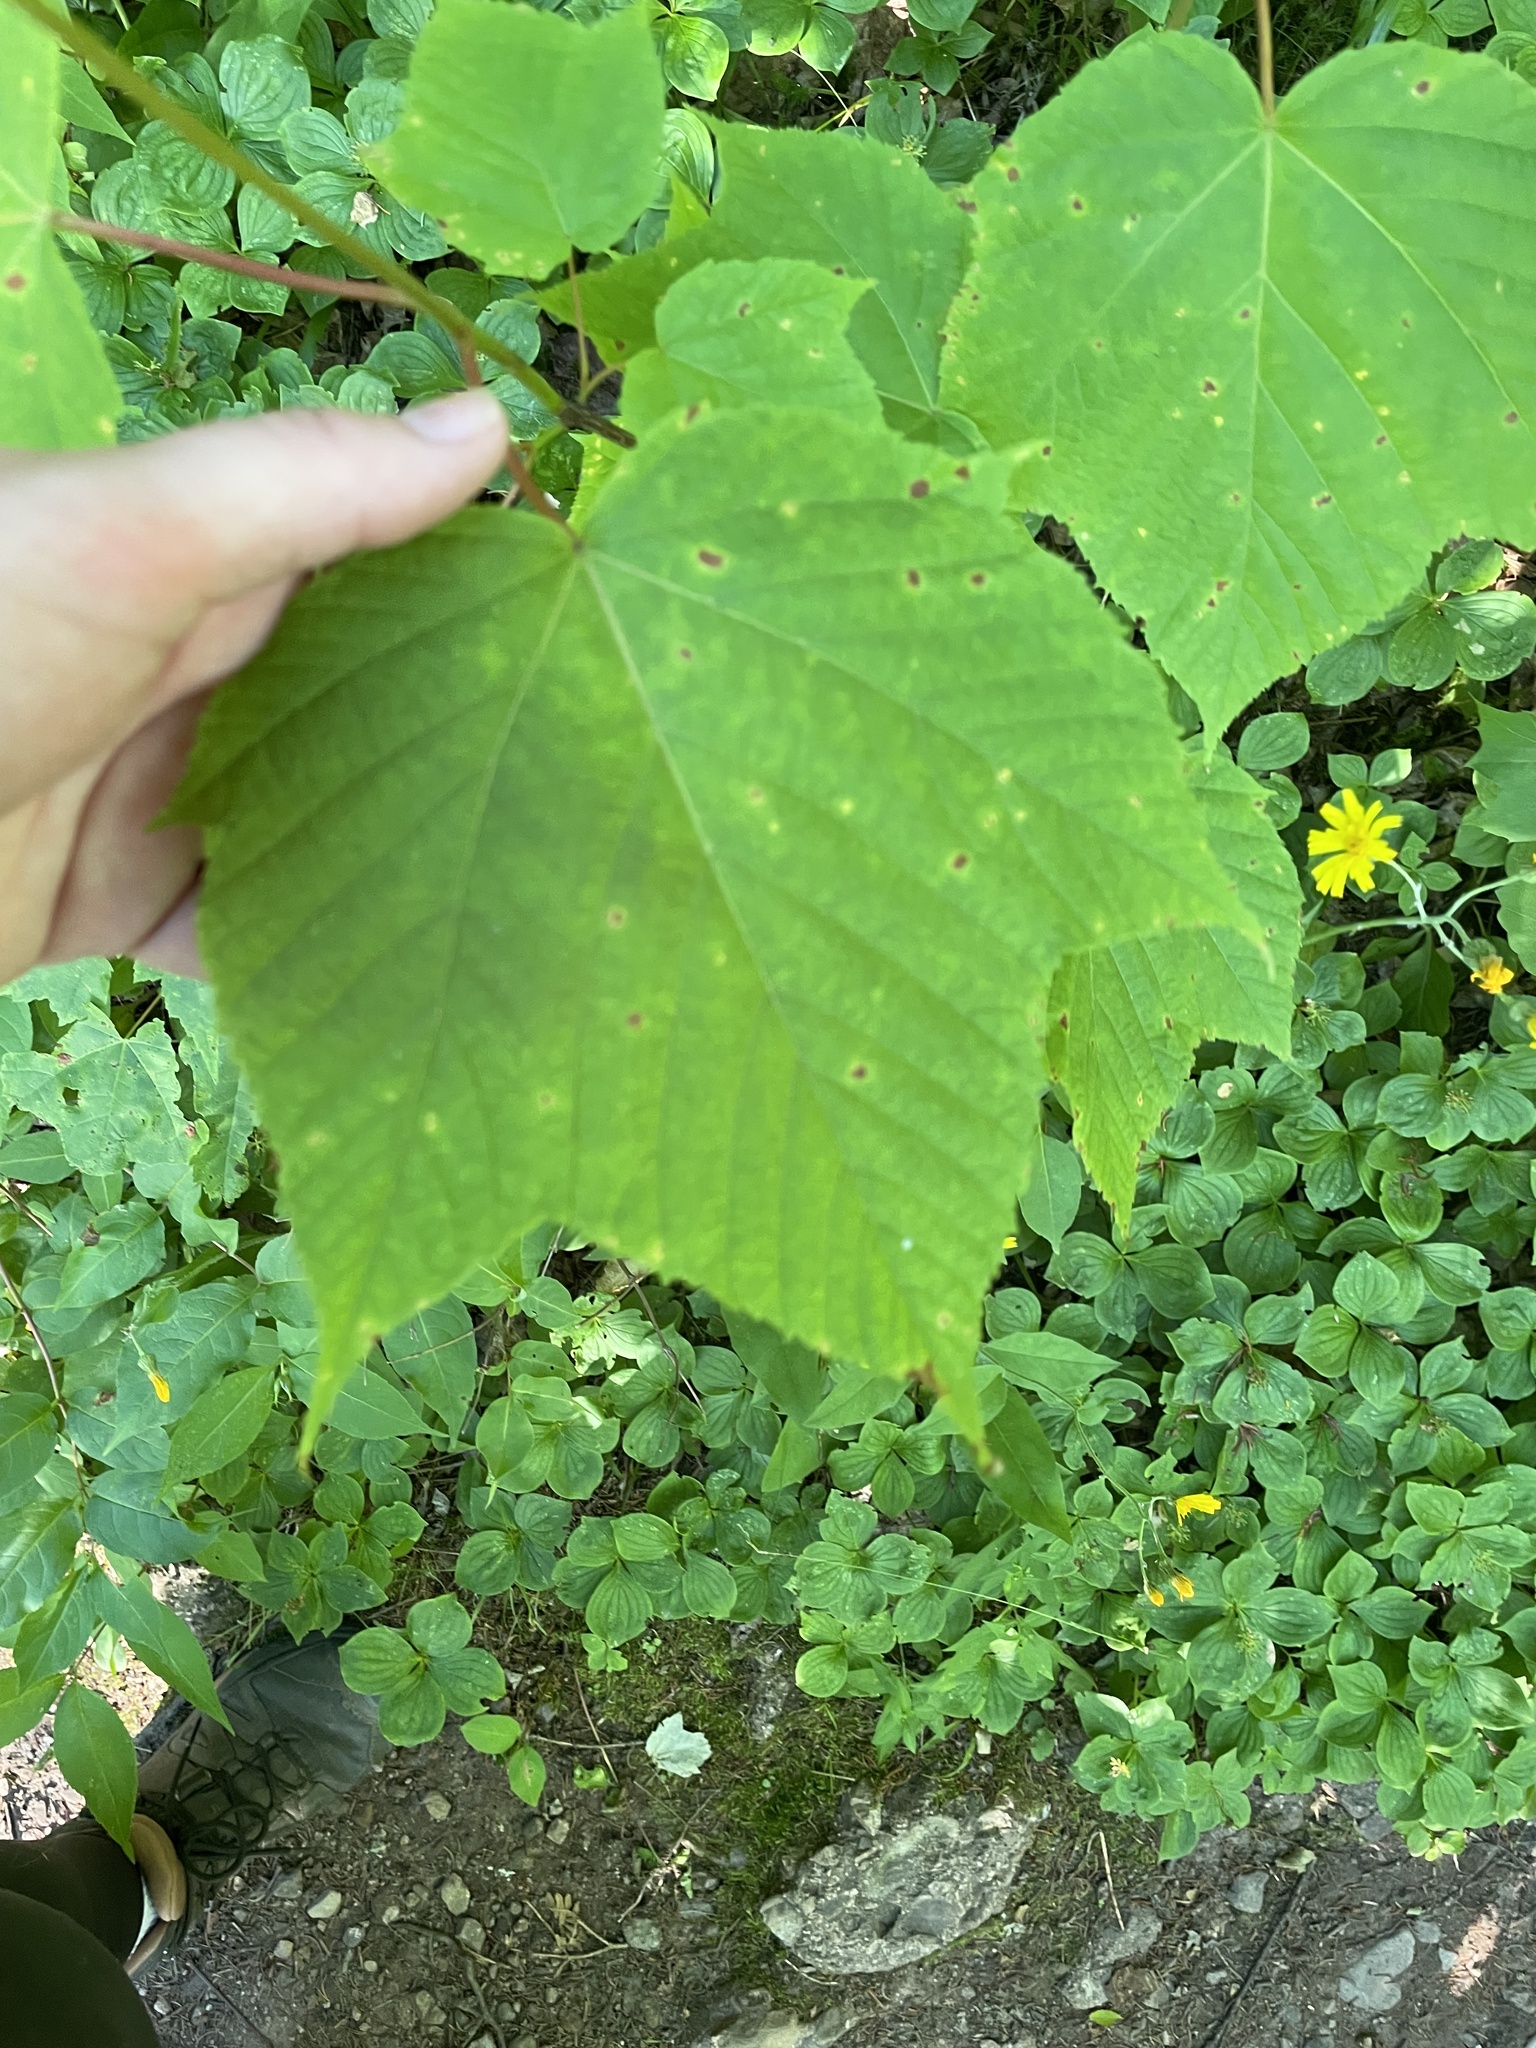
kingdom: Plantae
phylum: Tracheophyta
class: Magnoliopsida
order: Sapindales
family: Sapindaceae
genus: Acer
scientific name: Acer pensylvanicum
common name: Moosewood
